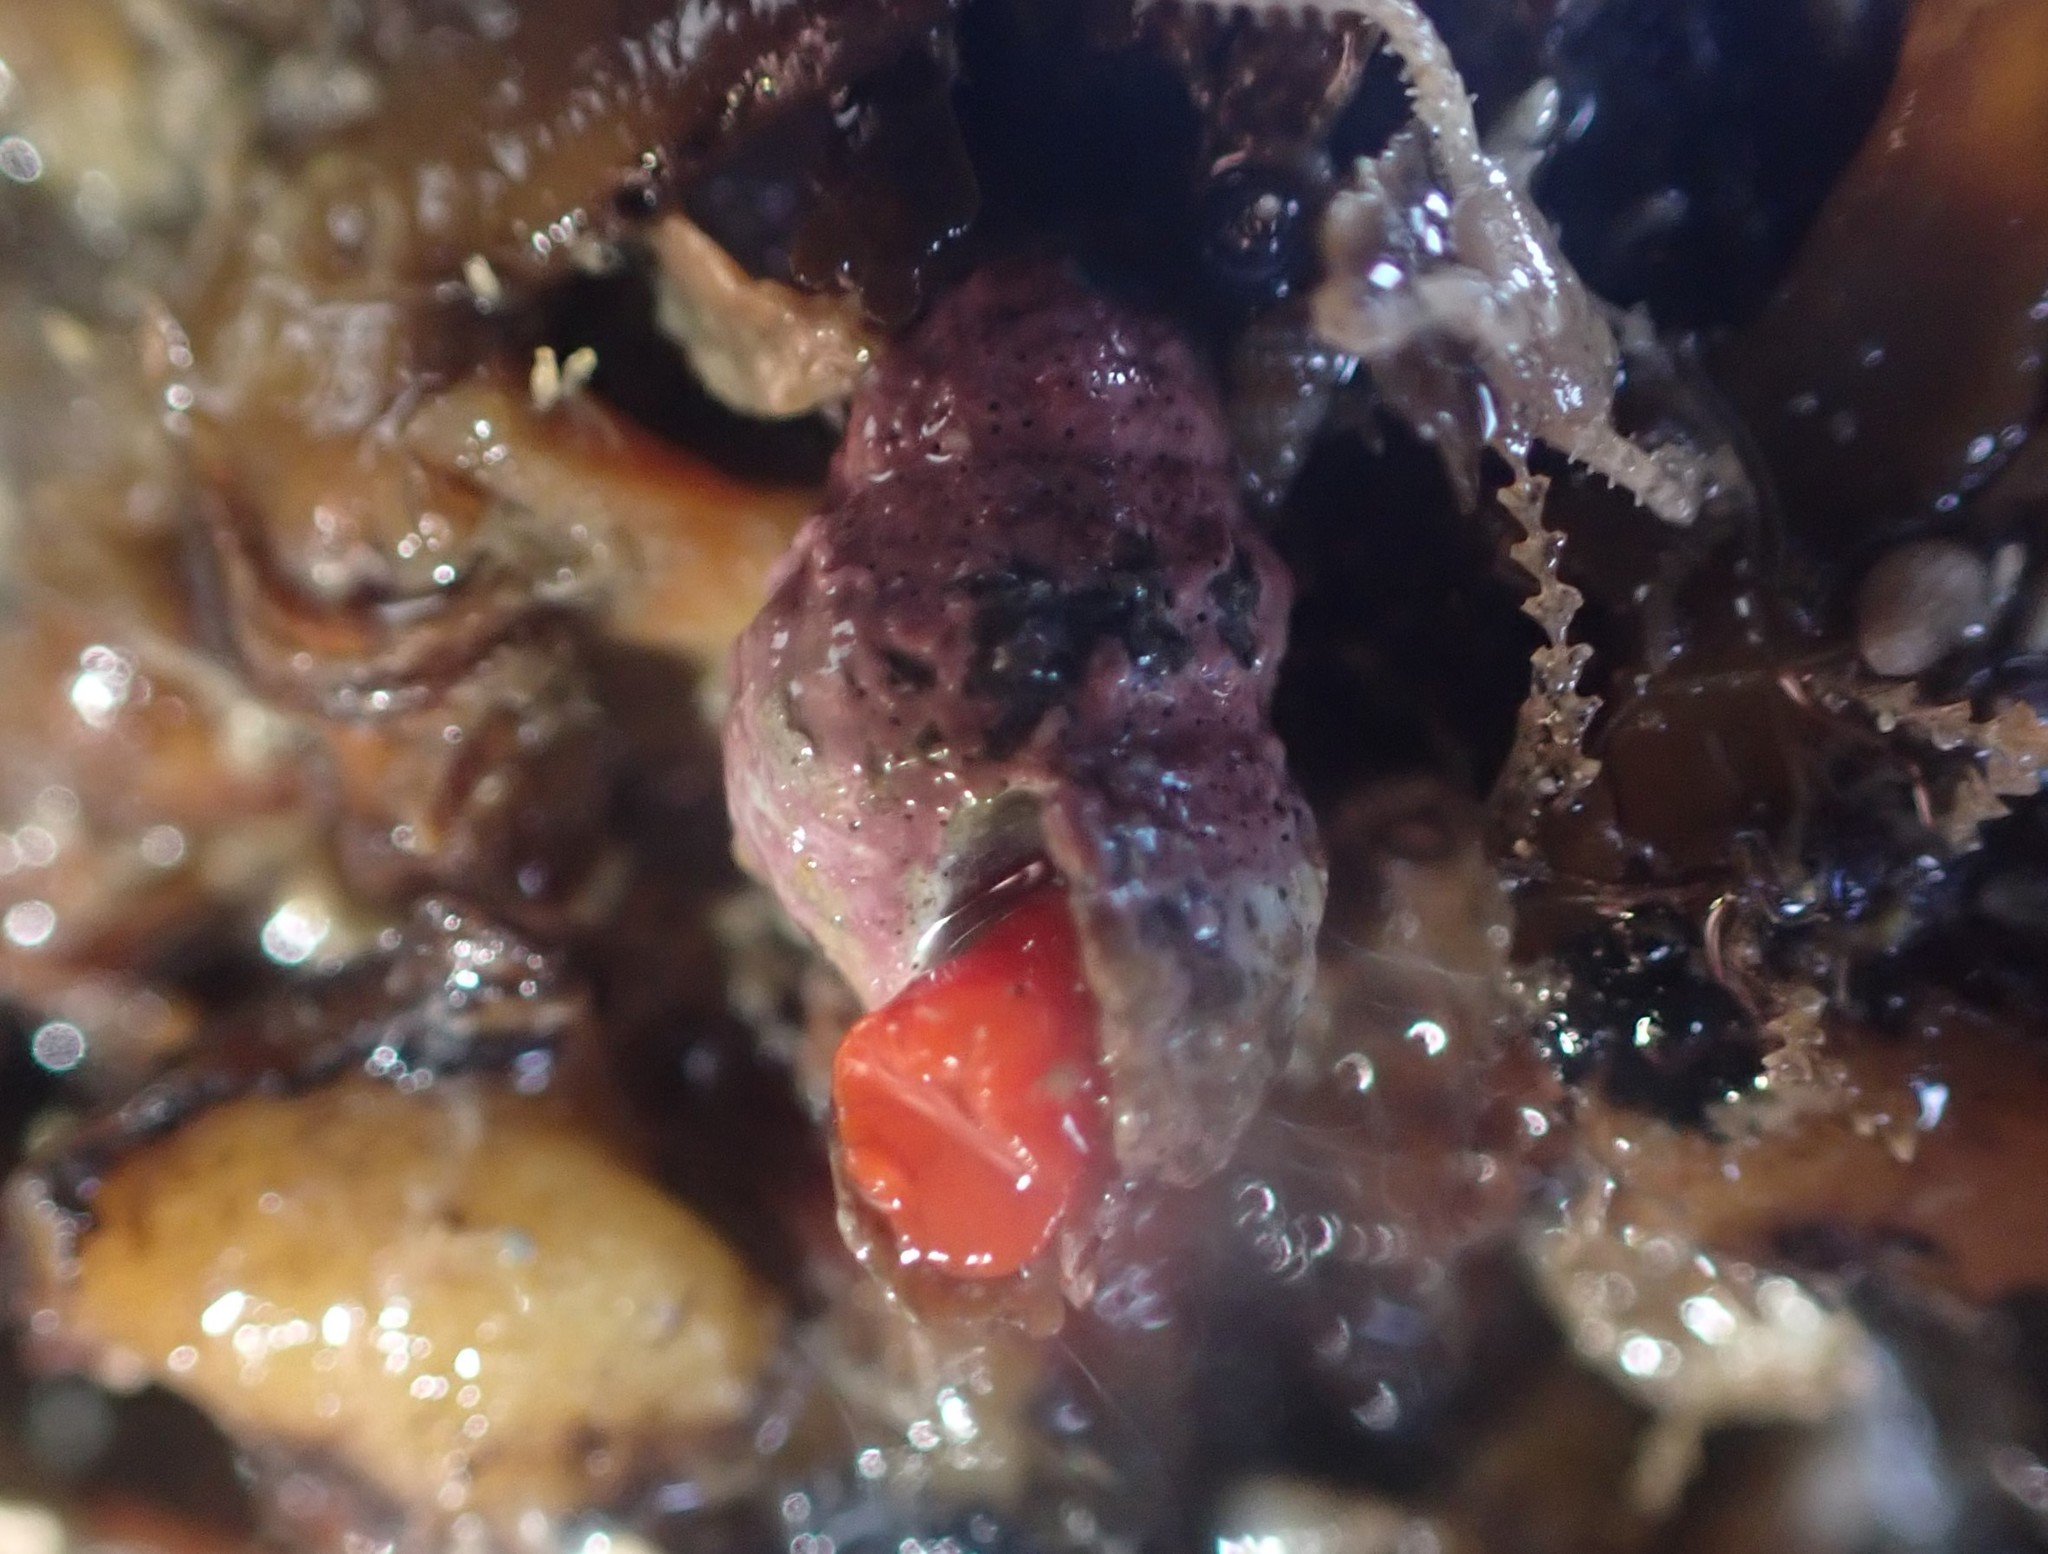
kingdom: Animalia
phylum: Mollusca
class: Gastropoda
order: Neogastropoda
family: Fasciolariidae
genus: Taron
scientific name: Taron dubius
